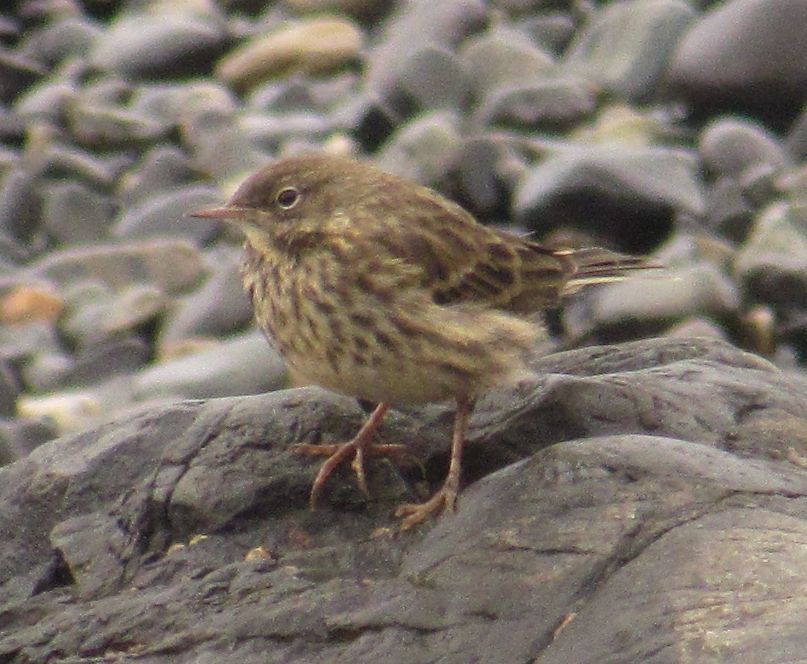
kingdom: Animalia
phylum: Chordata
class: Aves
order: Passeriformes
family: Motacillidae
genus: Anthus
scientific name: Anthus petrosus
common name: Eurasian rock pipit
